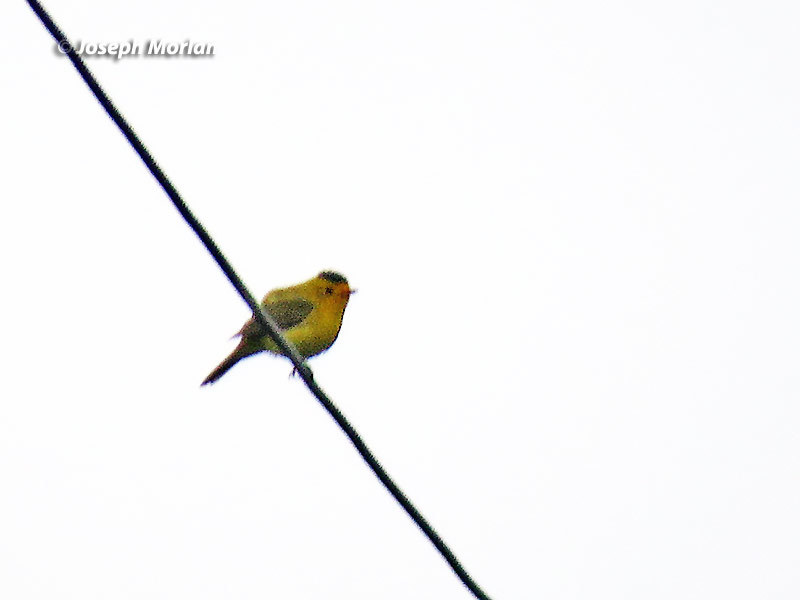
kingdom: Animalia
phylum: Chordata
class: Aves
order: Passeriformes
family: Parulidae
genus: Cardellina
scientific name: Cardellina pusilla
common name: Wilson's warbler
